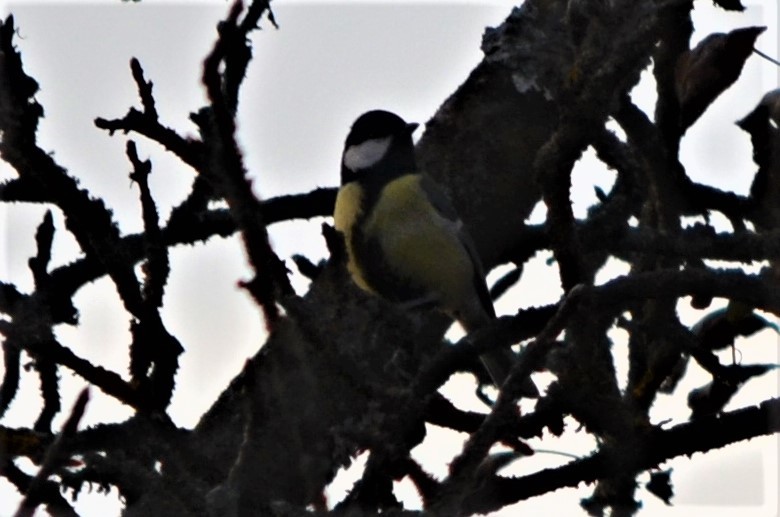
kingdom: Animalia
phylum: Chordata
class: Aves
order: Passeriformes
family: Paridae
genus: Parus
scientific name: Parus major
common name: Great tit
